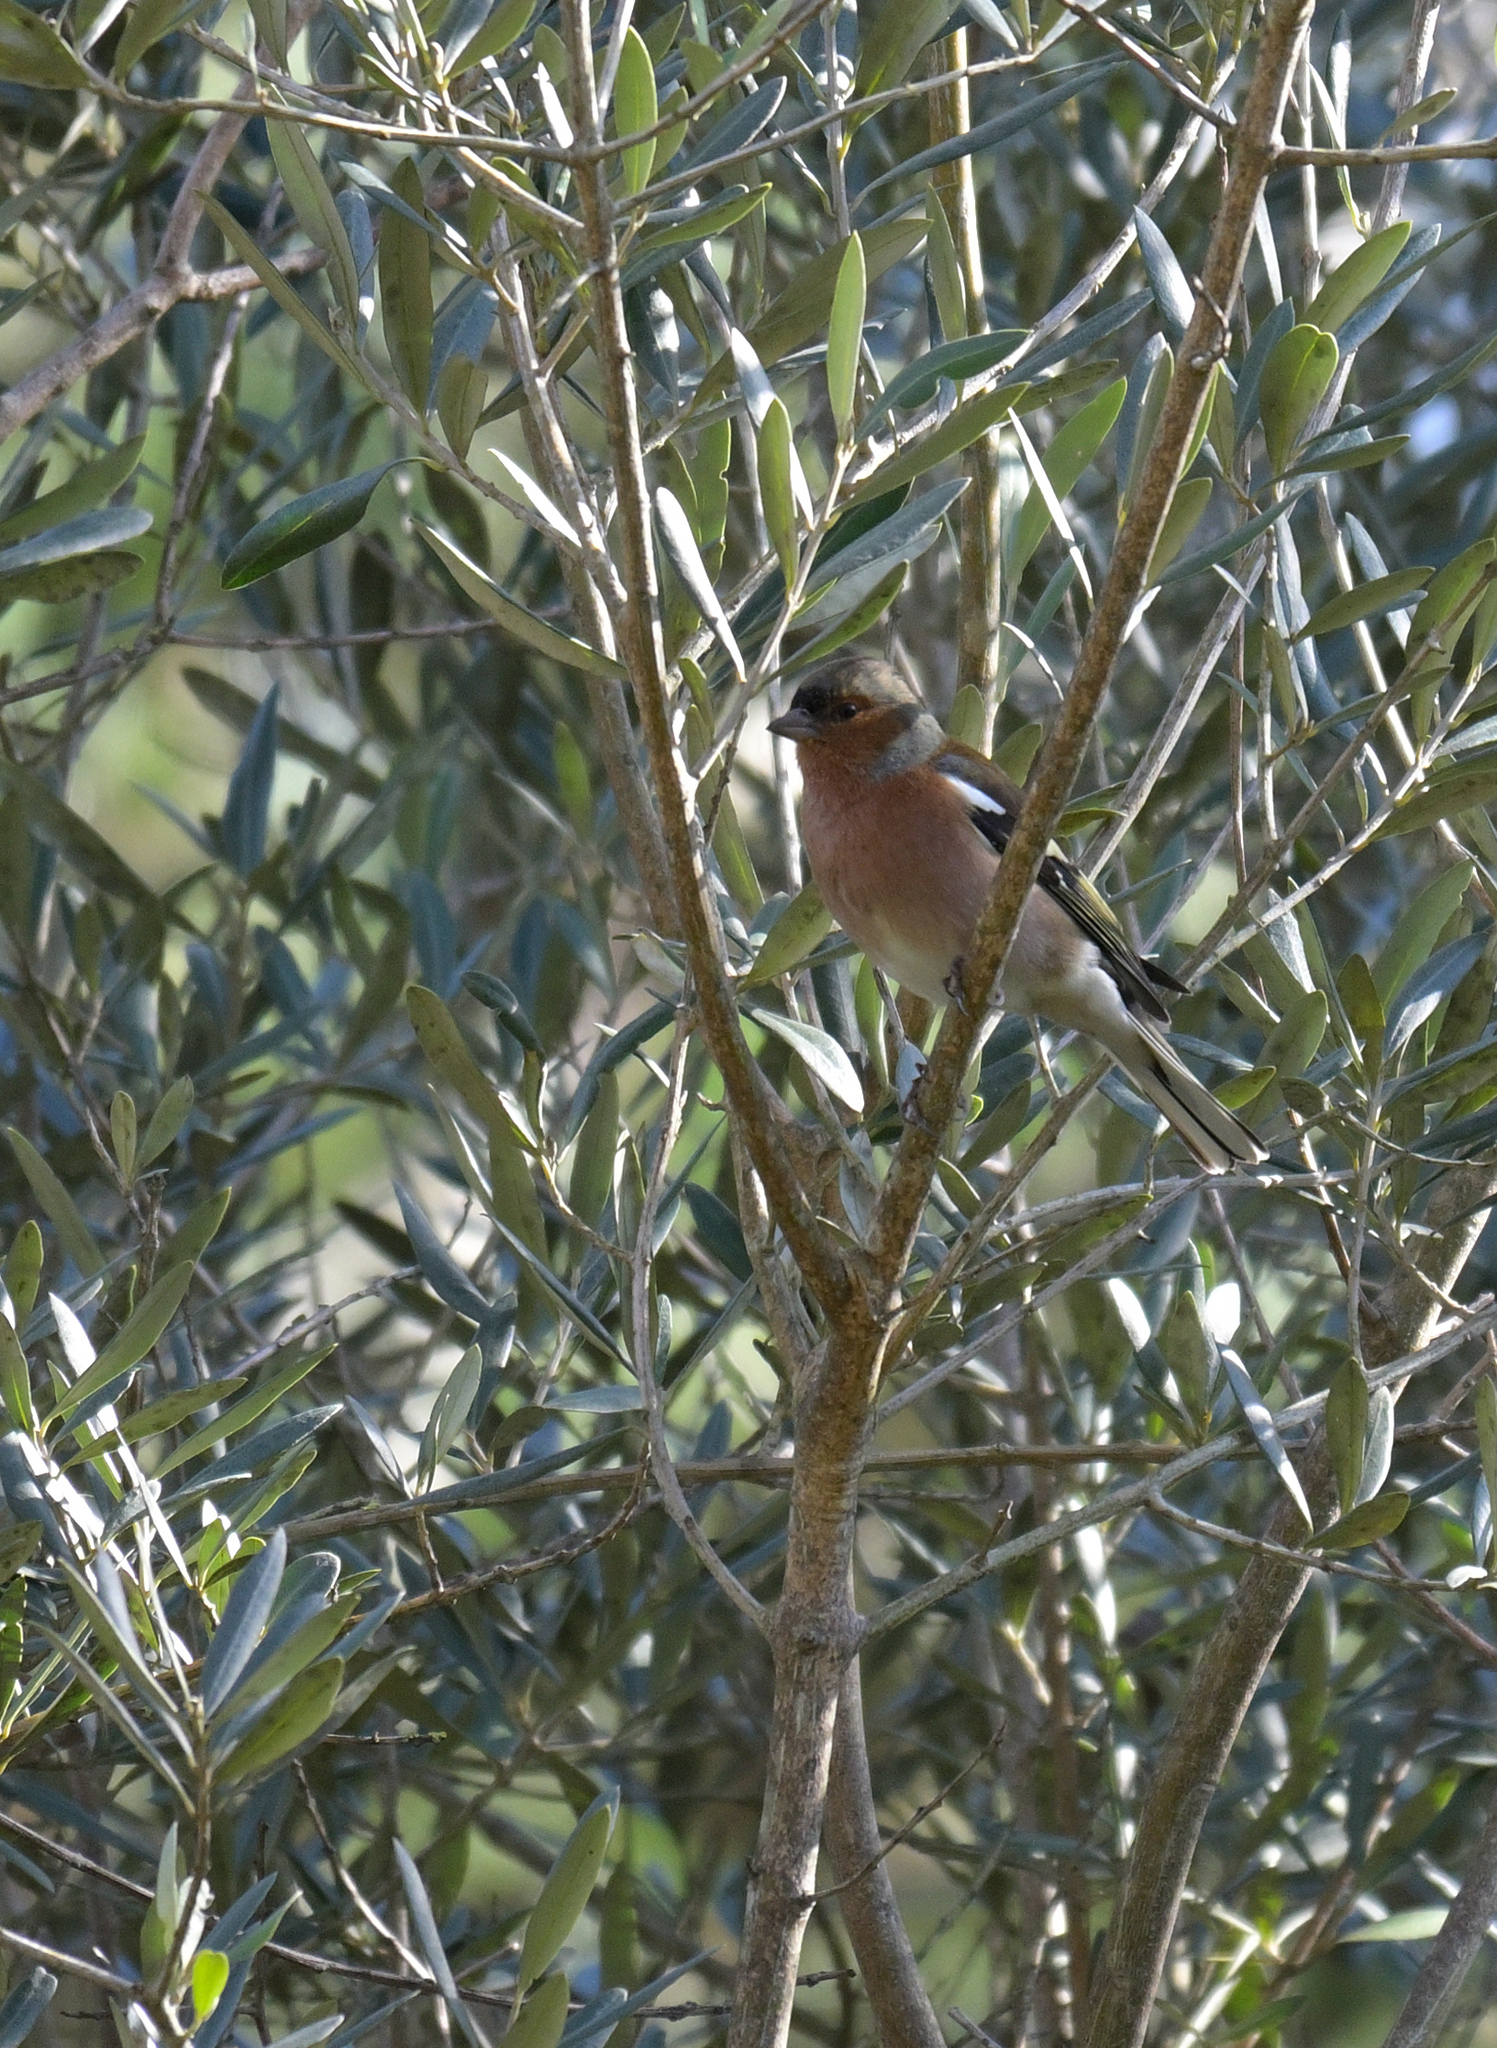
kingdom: Animalia
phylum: Chordata
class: Aves
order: Passeriformes
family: Fringillidae
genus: Fringilla
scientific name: Fringilla coelebs
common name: Common chaffinch
